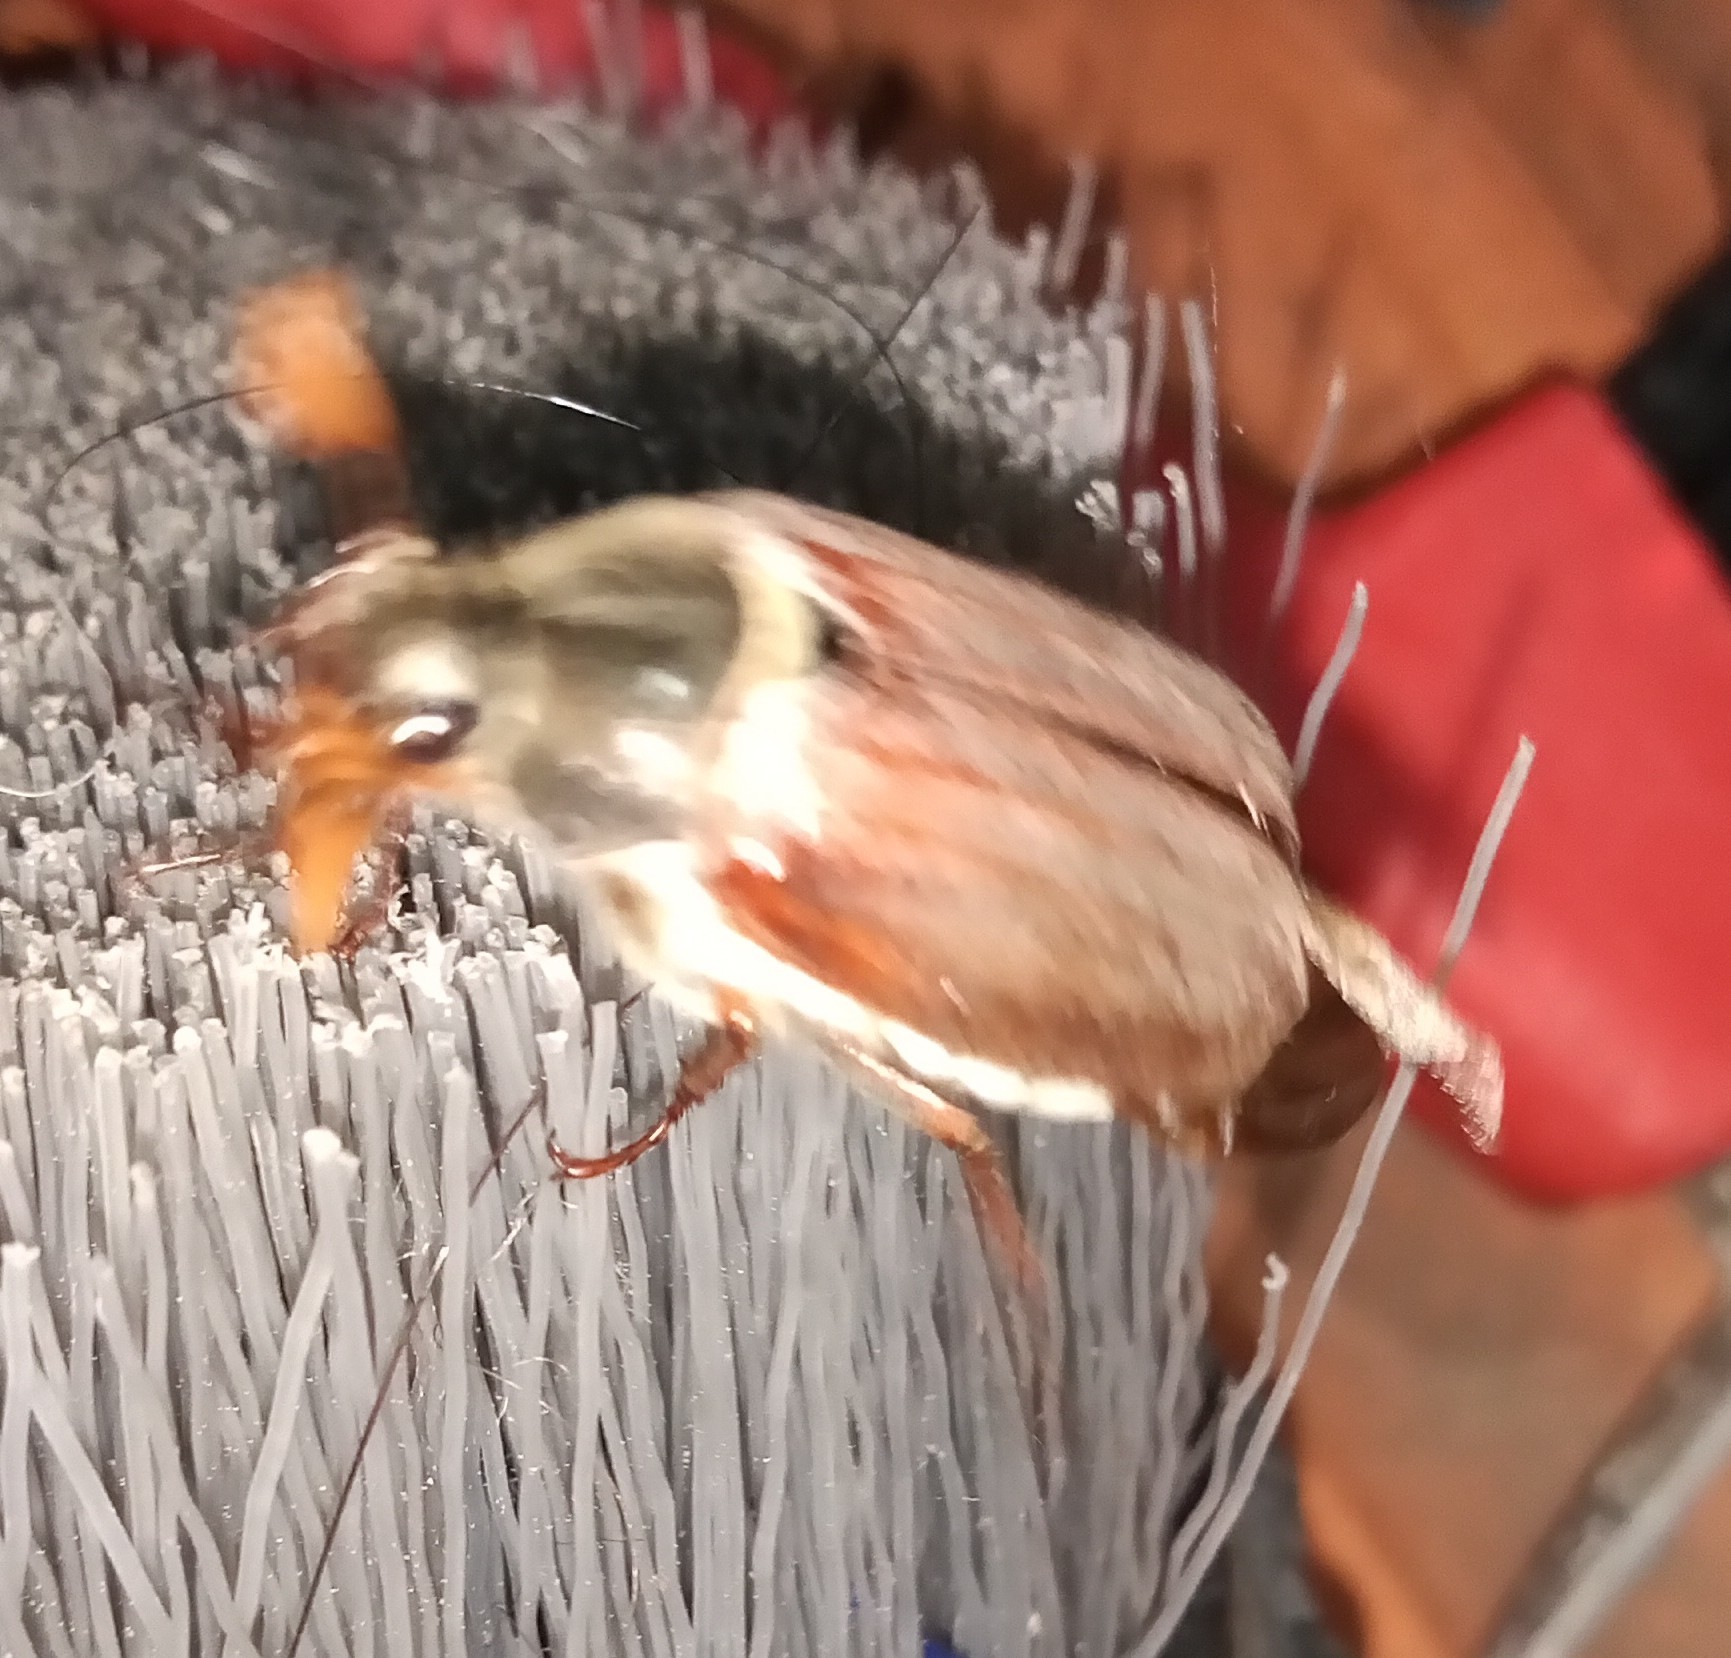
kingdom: Animalia
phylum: Arthropoda
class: Insecta
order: Coleoptera
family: Scarabaeidae
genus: Melolontha
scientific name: Melolontha melolontha
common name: Cockchafer maybeetle
